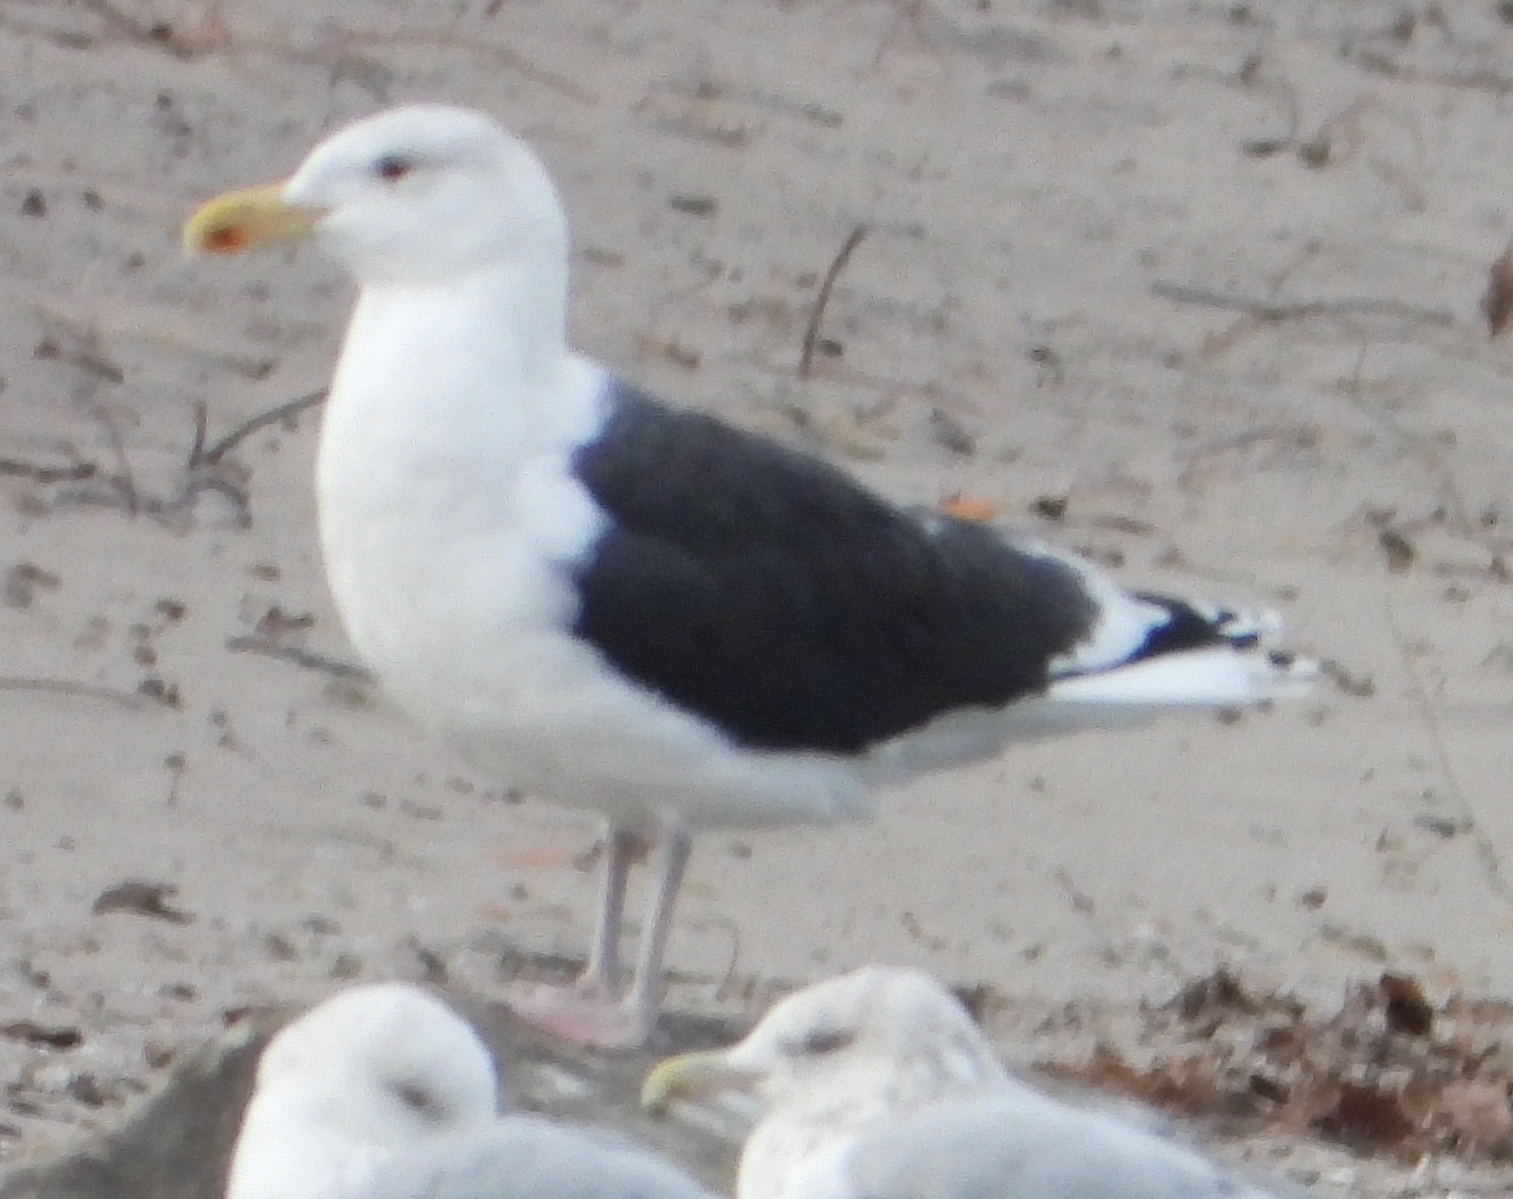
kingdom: Animalia
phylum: Chordata
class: Aves
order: Charadriiformes
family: Laridae
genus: Larus
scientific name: Larus marinus
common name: Great black-backed gull
